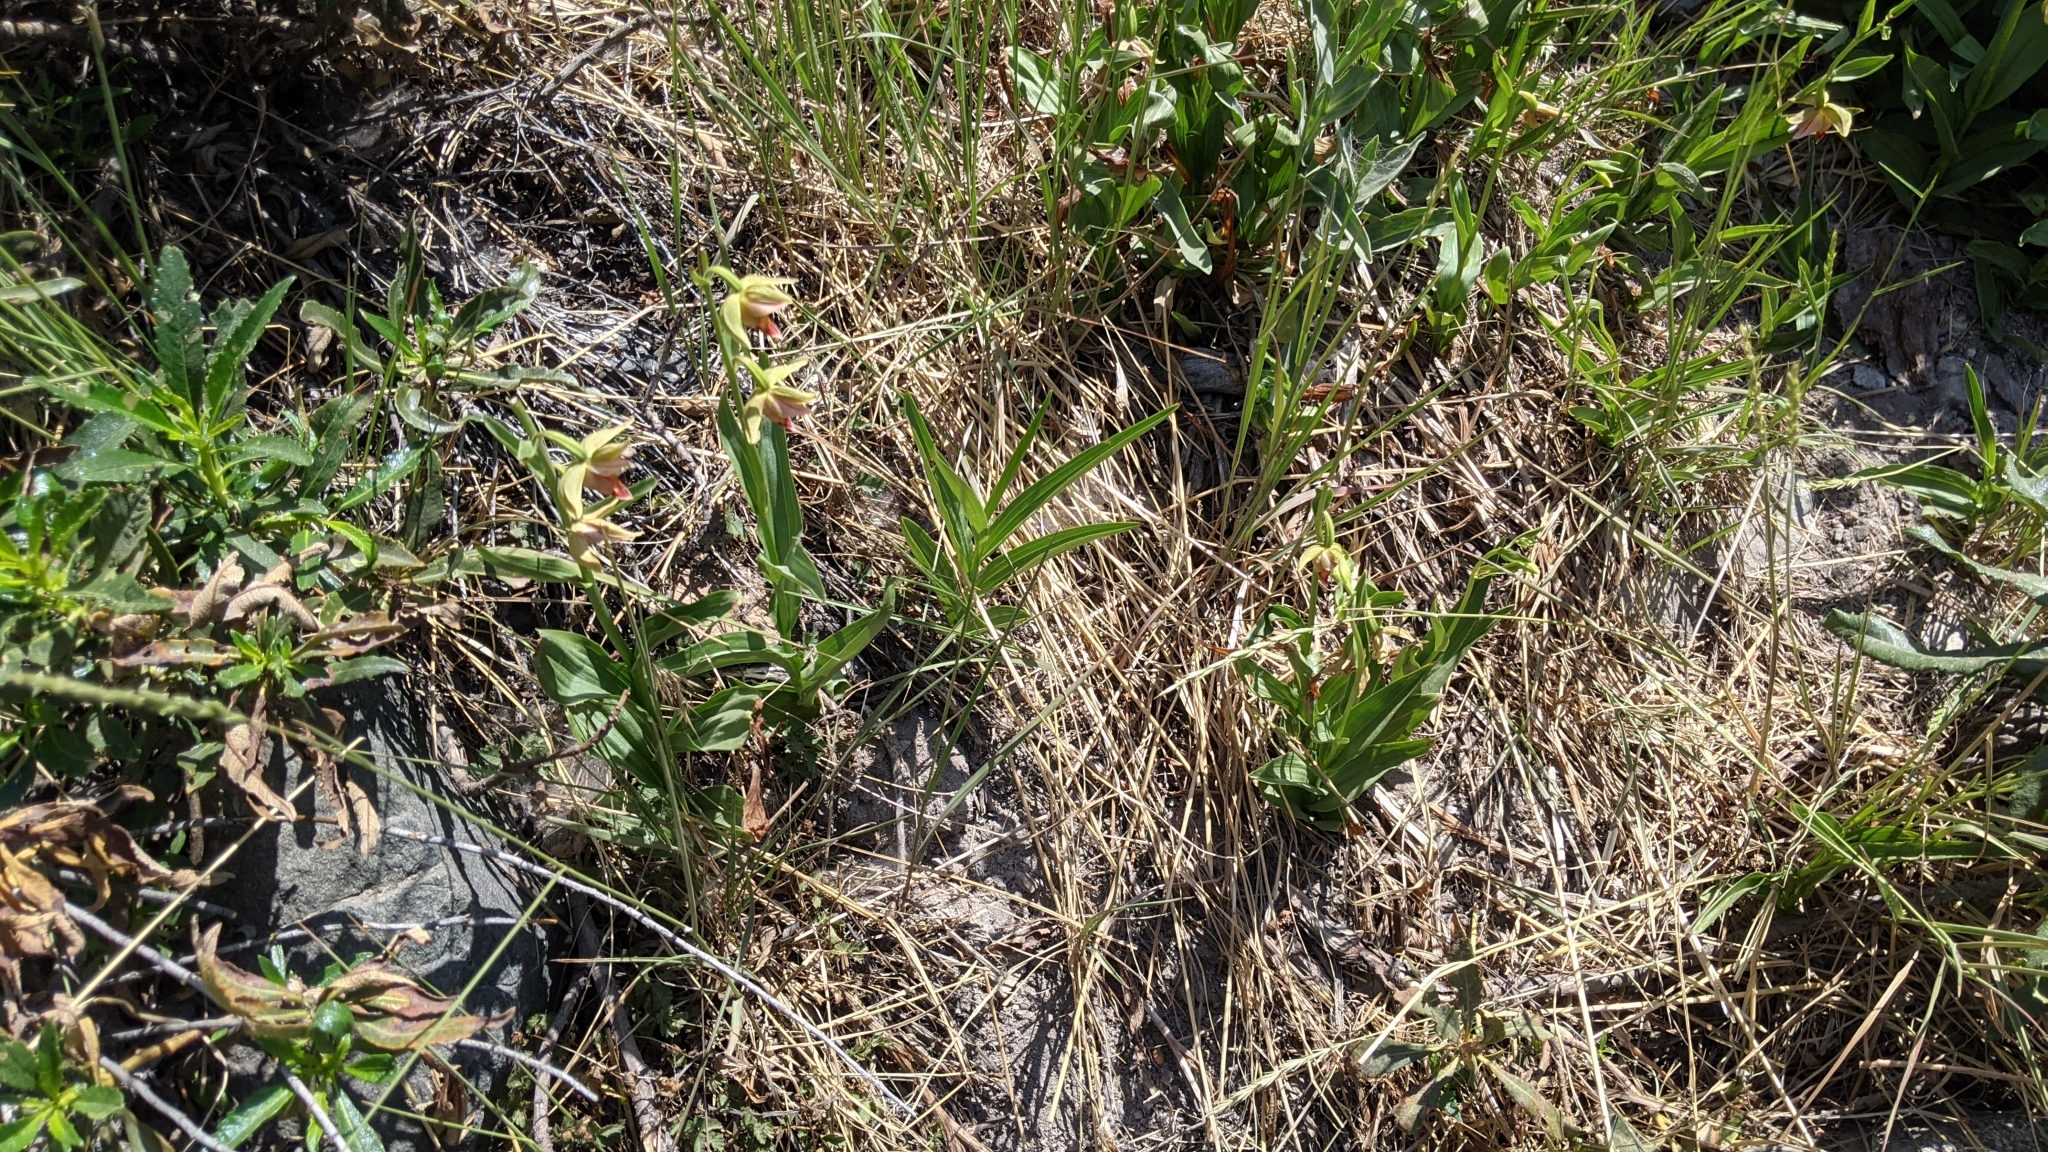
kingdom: Plantae
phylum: Tracheophyta
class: Liliopsida
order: Asparagales
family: Orchidaceae
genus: Epipactis
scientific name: Epipactis gigantea
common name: Chatterbox
